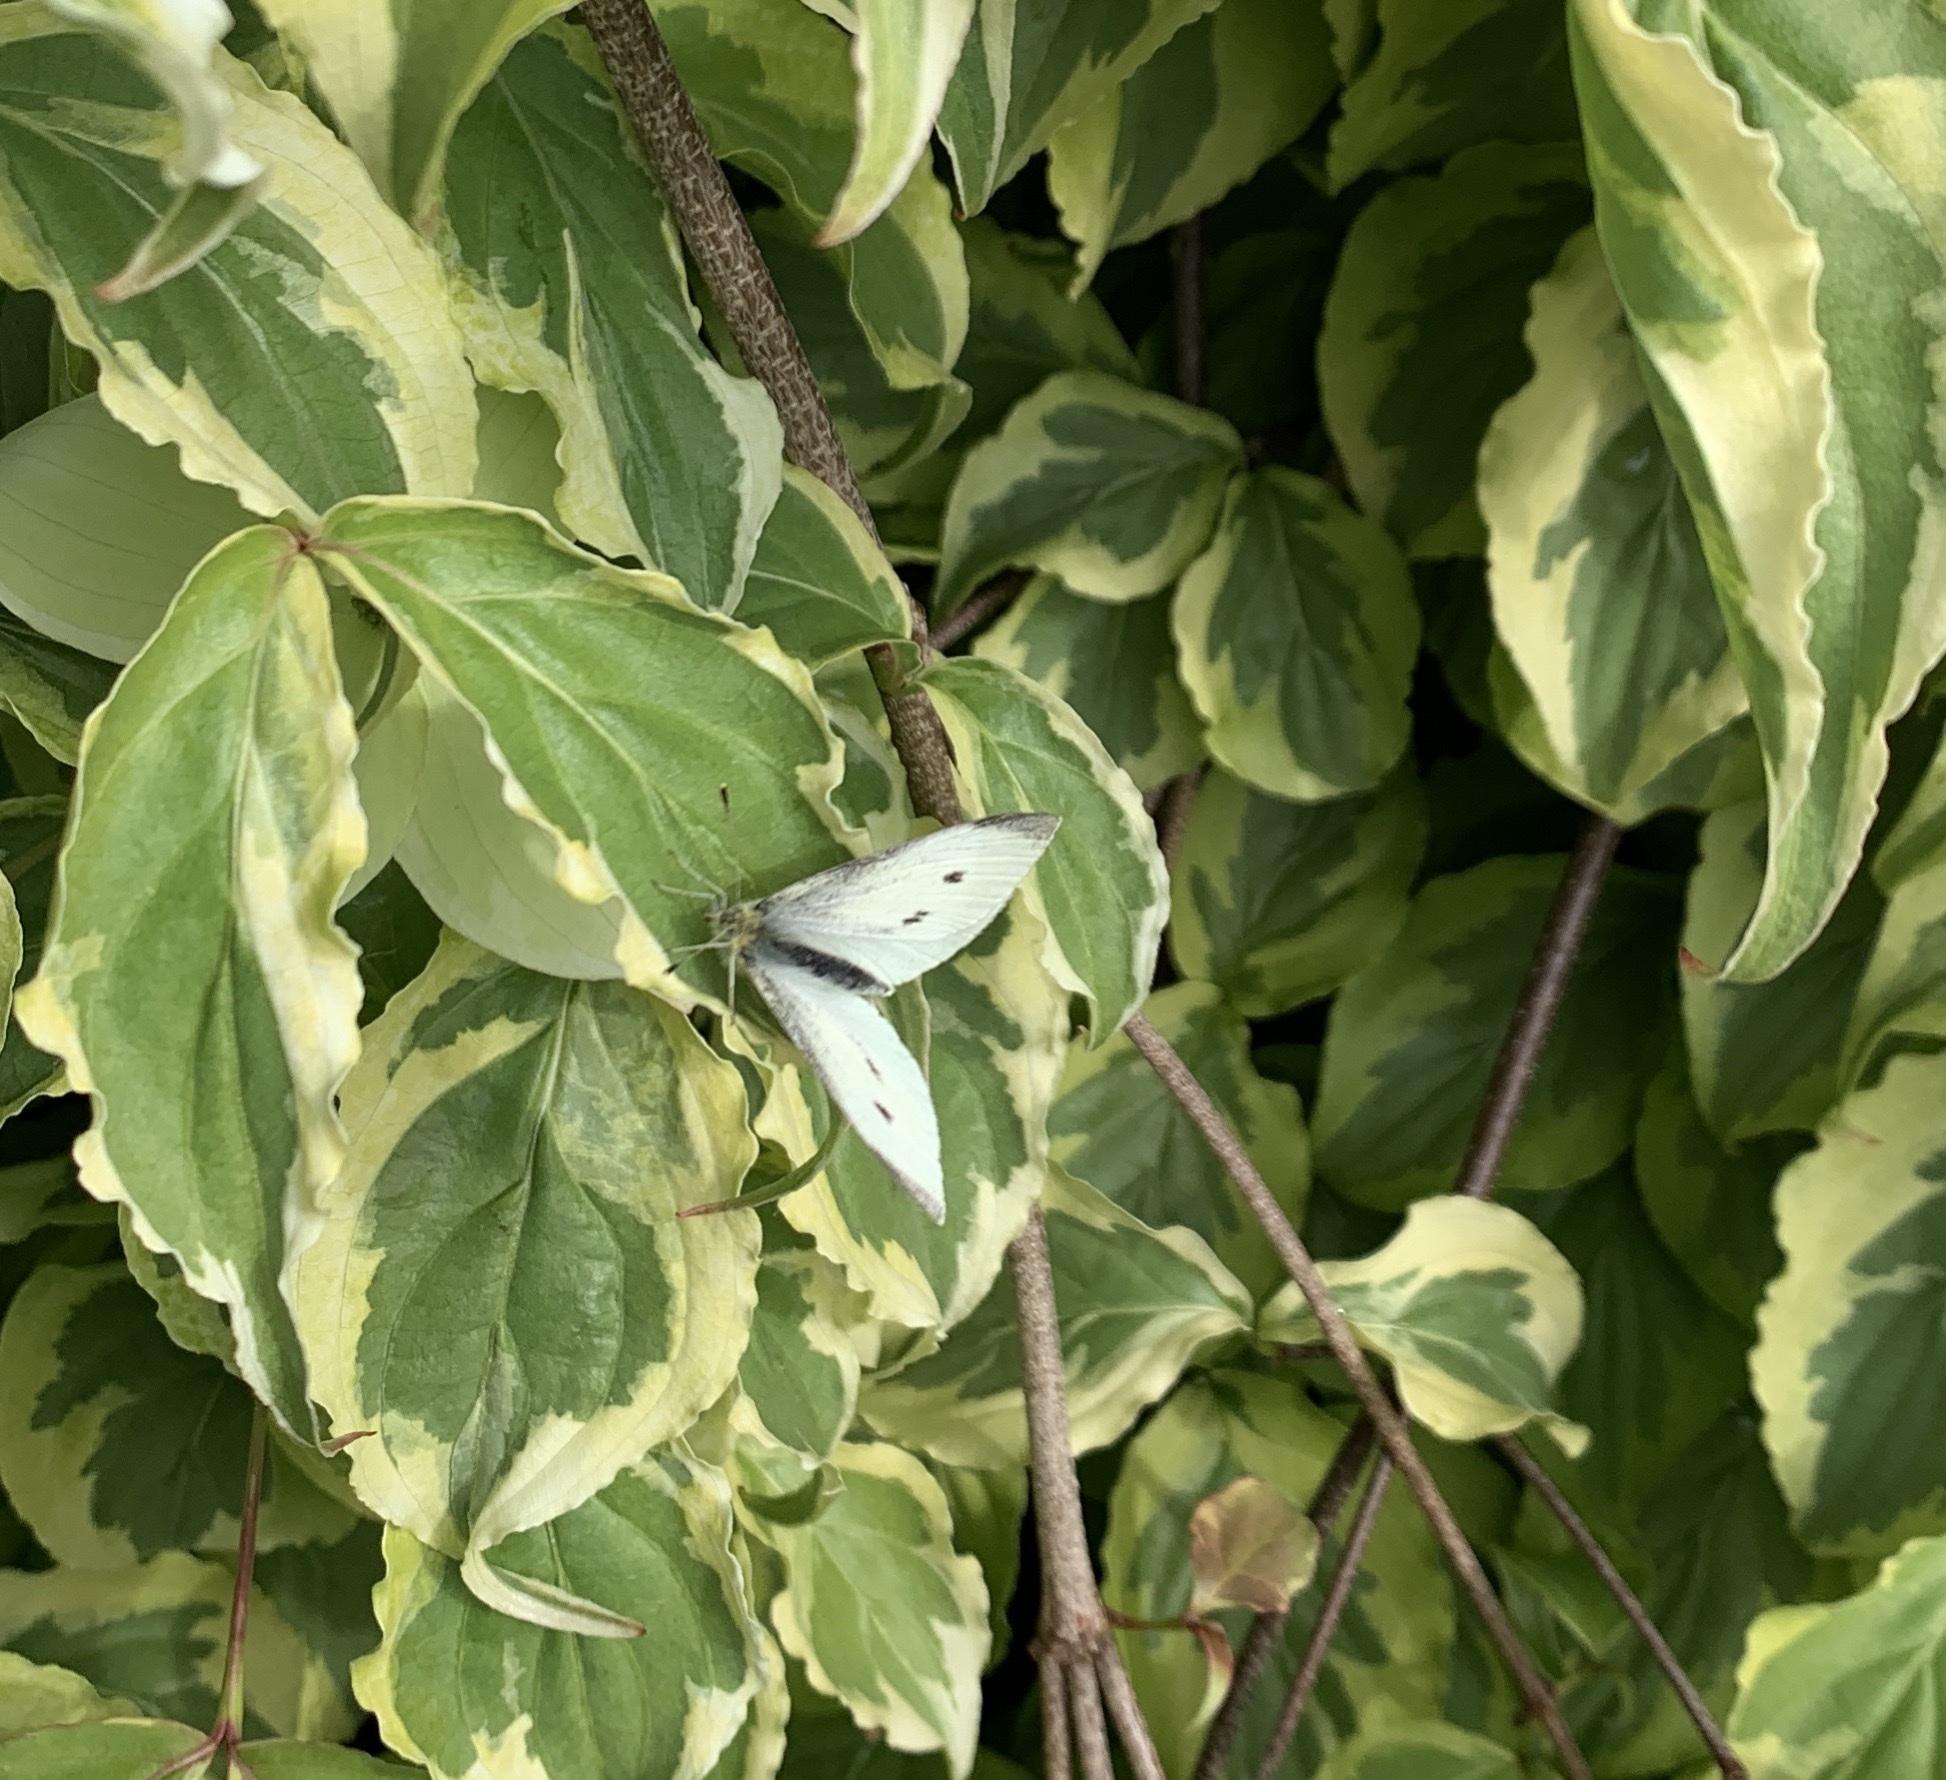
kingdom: Animalia
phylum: Arthropoda
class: Insecta
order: Lepidoptera
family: Pieridae
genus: Pieris
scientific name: Pieris rapae
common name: Small white
